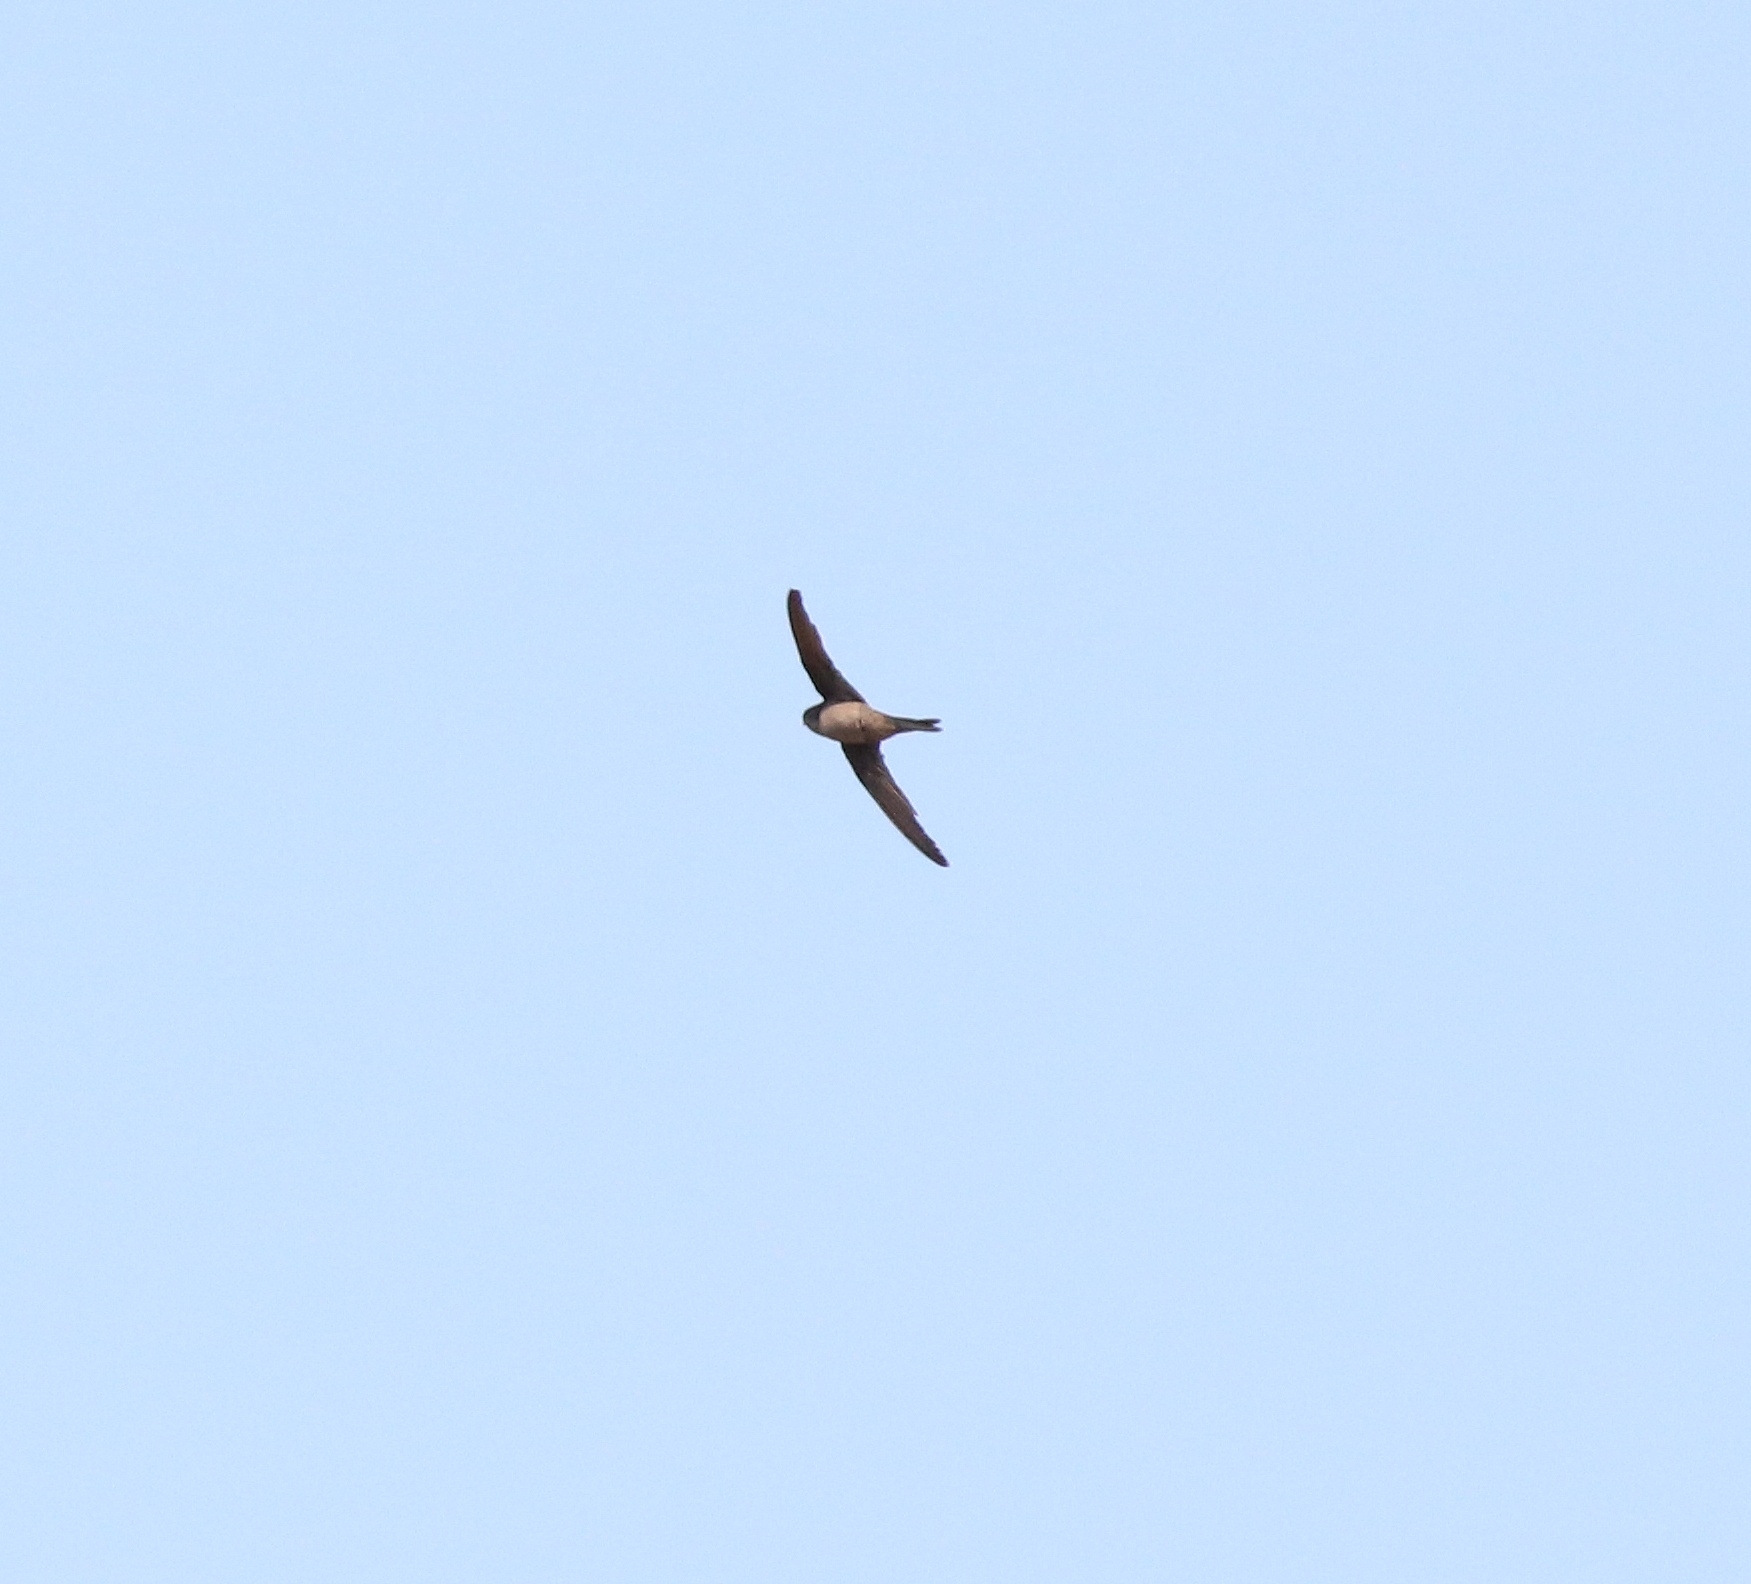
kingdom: Animalia
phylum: Chordata
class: Aves
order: Apodiformes
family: Apodidae
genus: Cypsiurus
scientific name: Cypsiurus balasiensis
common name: Asian palm swift
